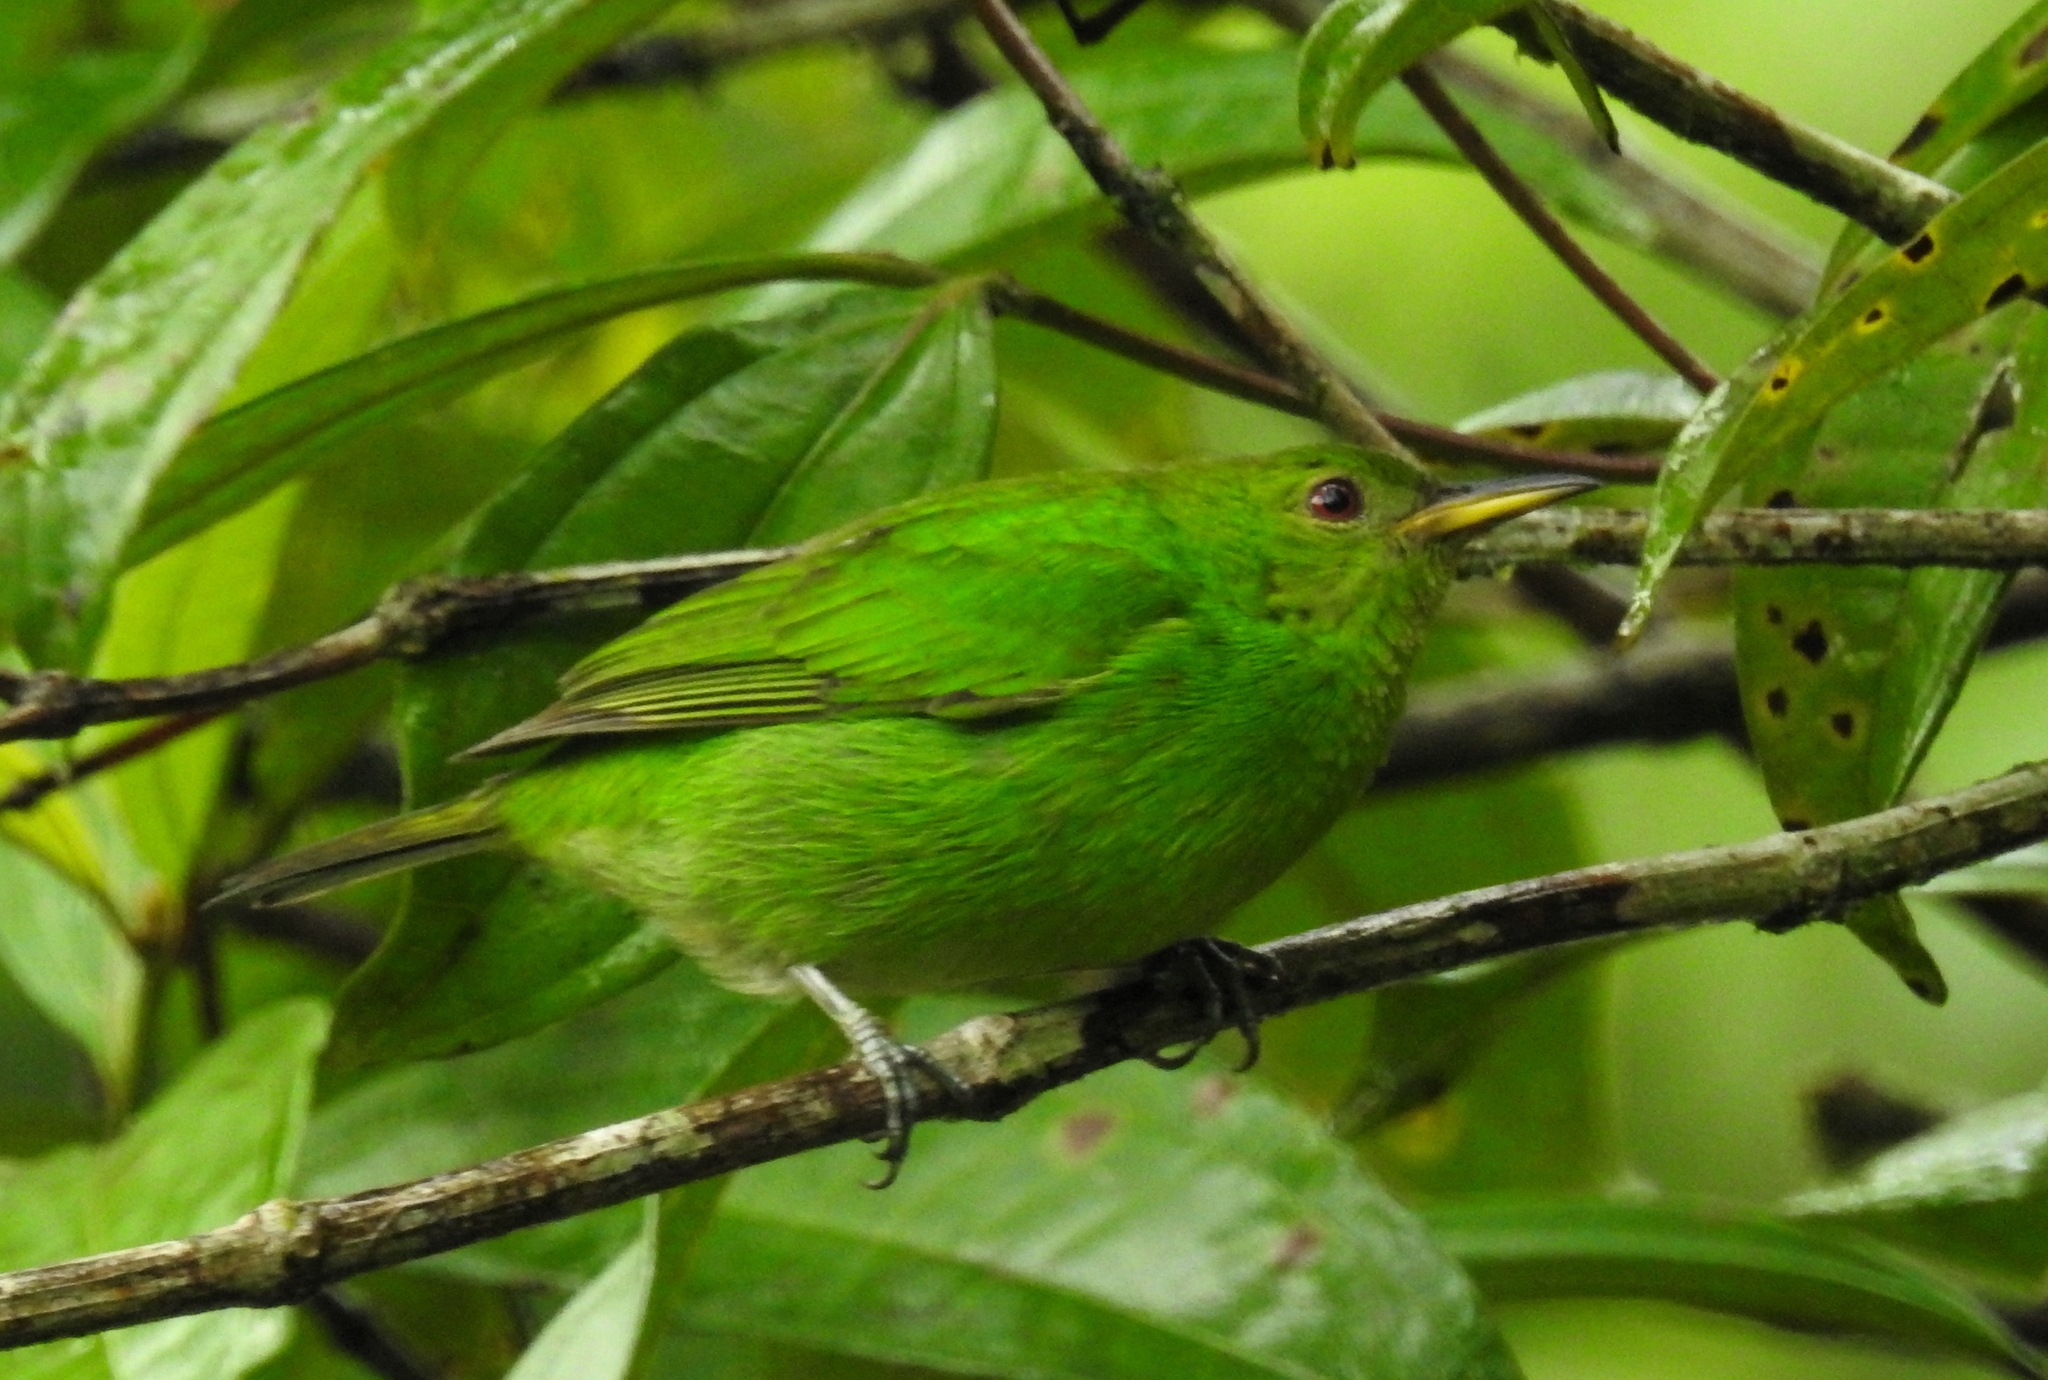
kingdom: Animalia
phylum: Chordata
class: Aves
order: Passeriformes
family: Thraupidae
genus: Chlorophanes
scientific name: Chlorophanes spiza
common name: Green honeycreeper
